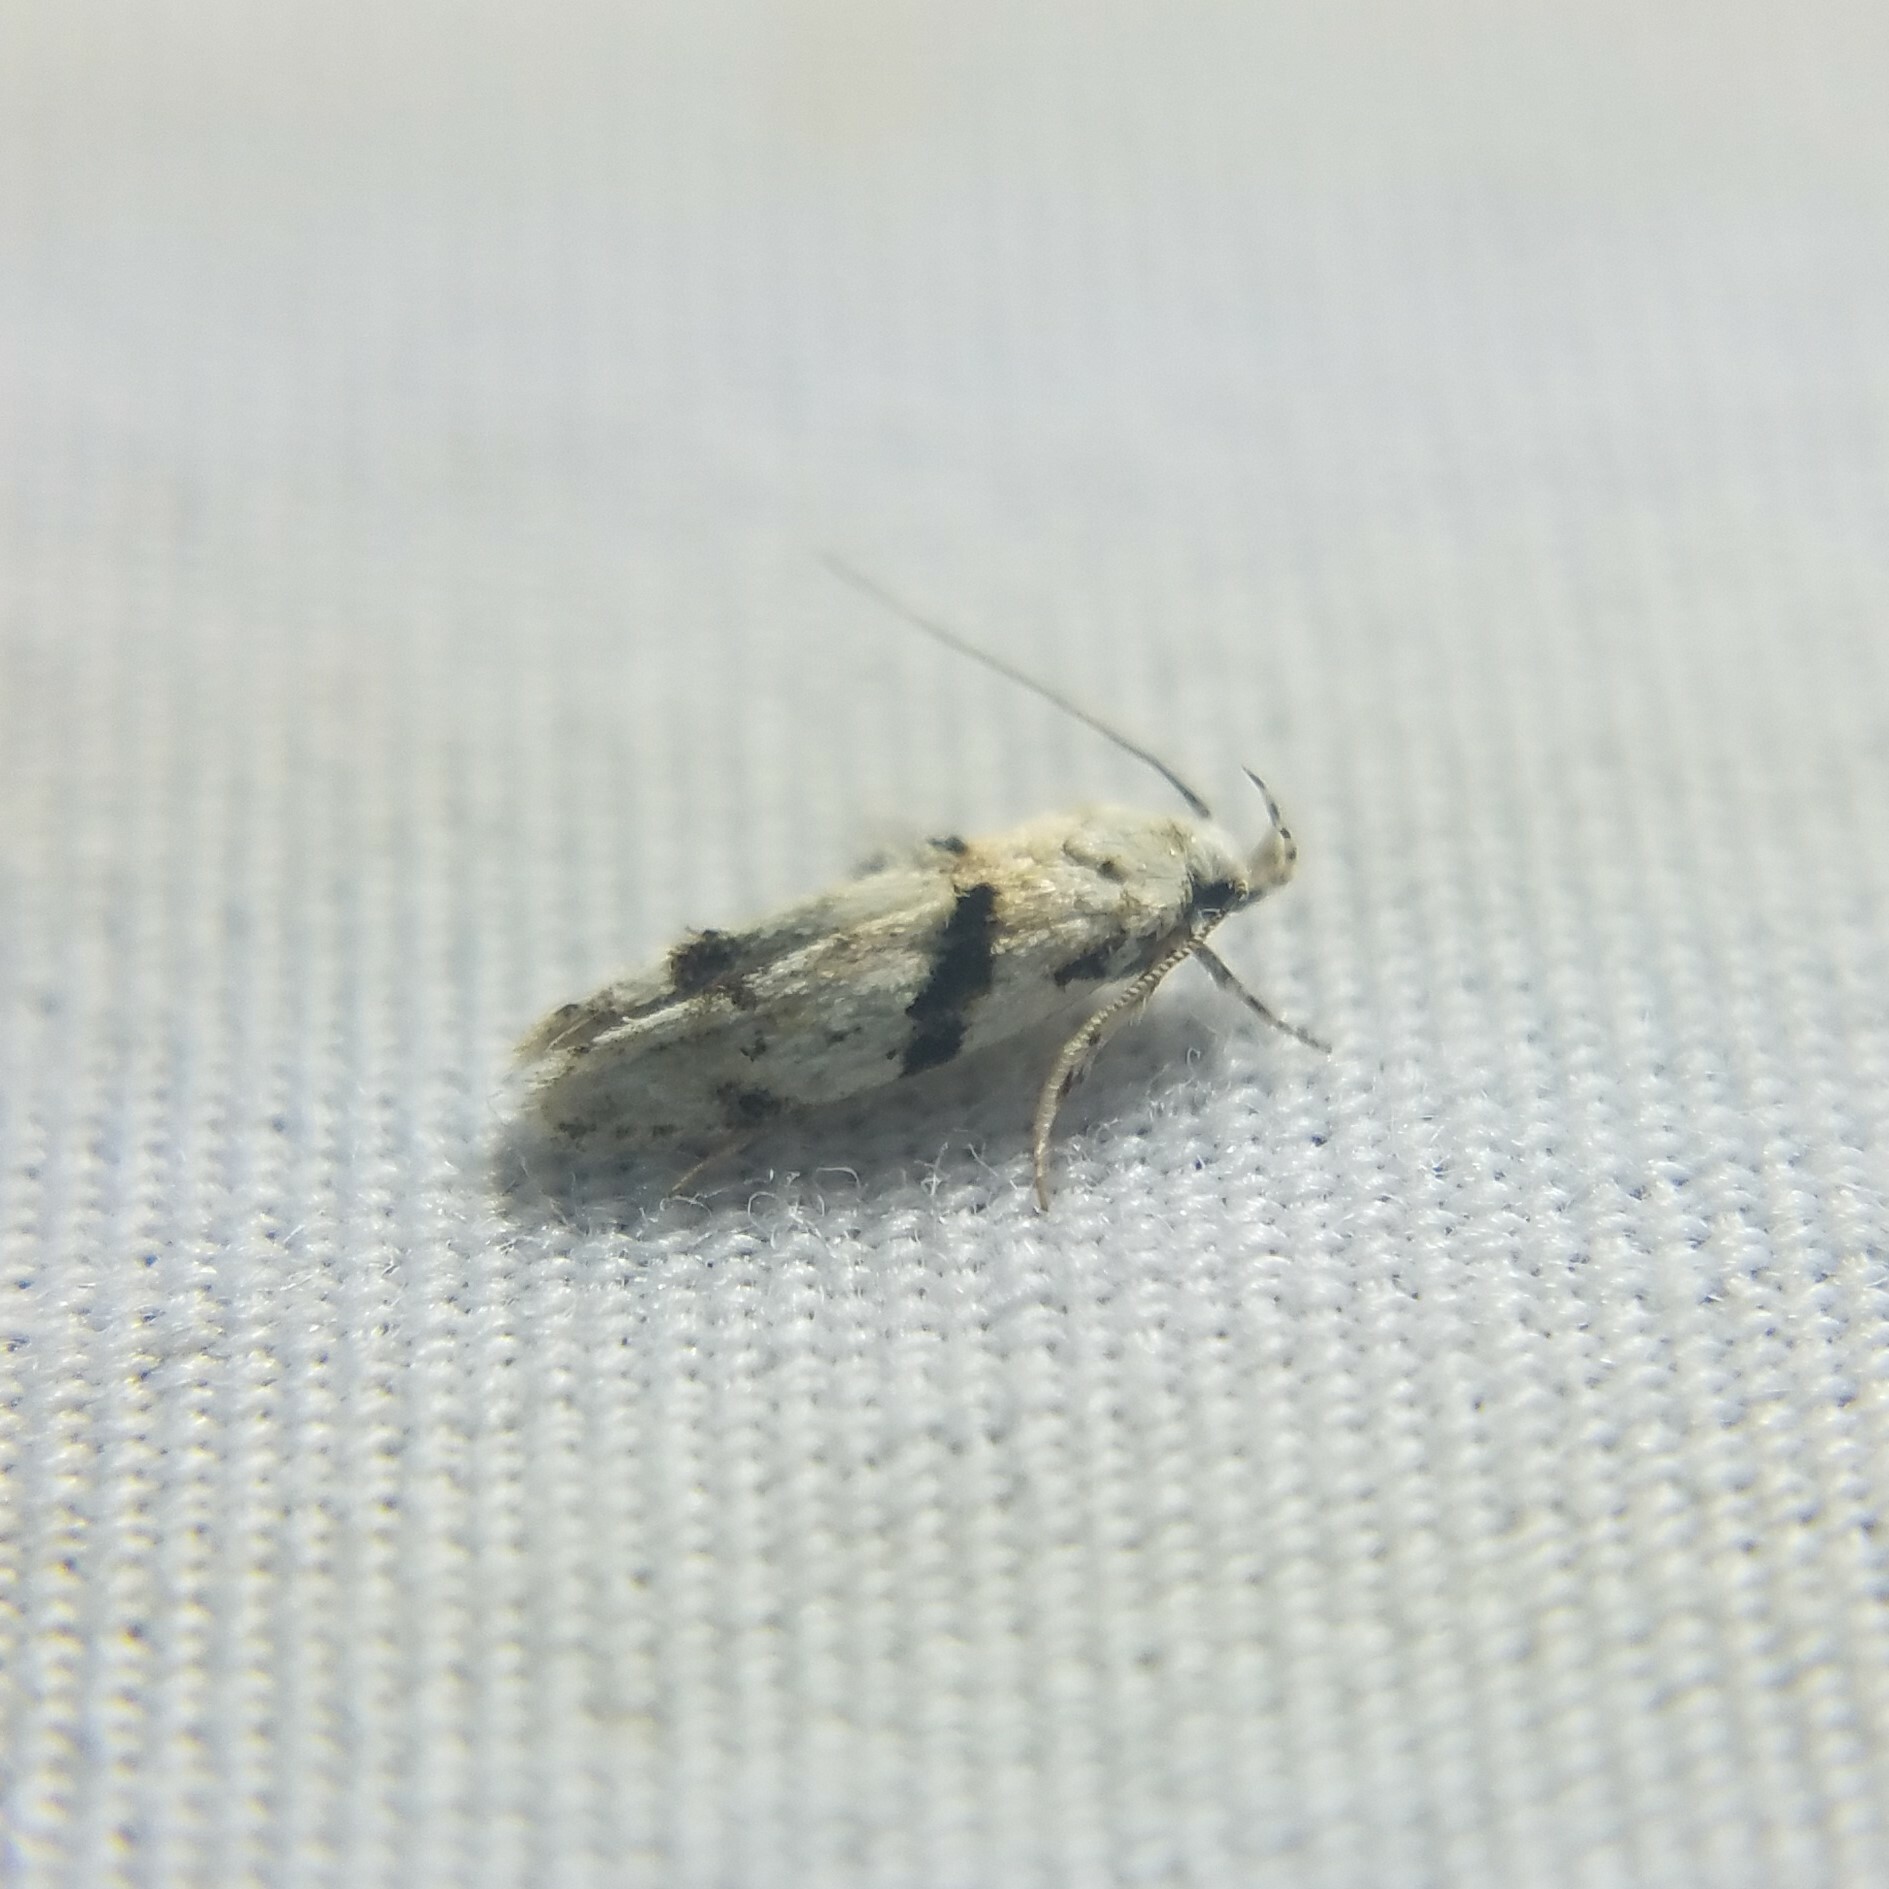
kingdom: Animalia
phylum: Arthropoda
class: Insecta
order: Lepidoptera
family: Gelechiidae
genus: Arogalea
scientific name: Arogalea cristifasciella
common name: White stripe-backed moth
